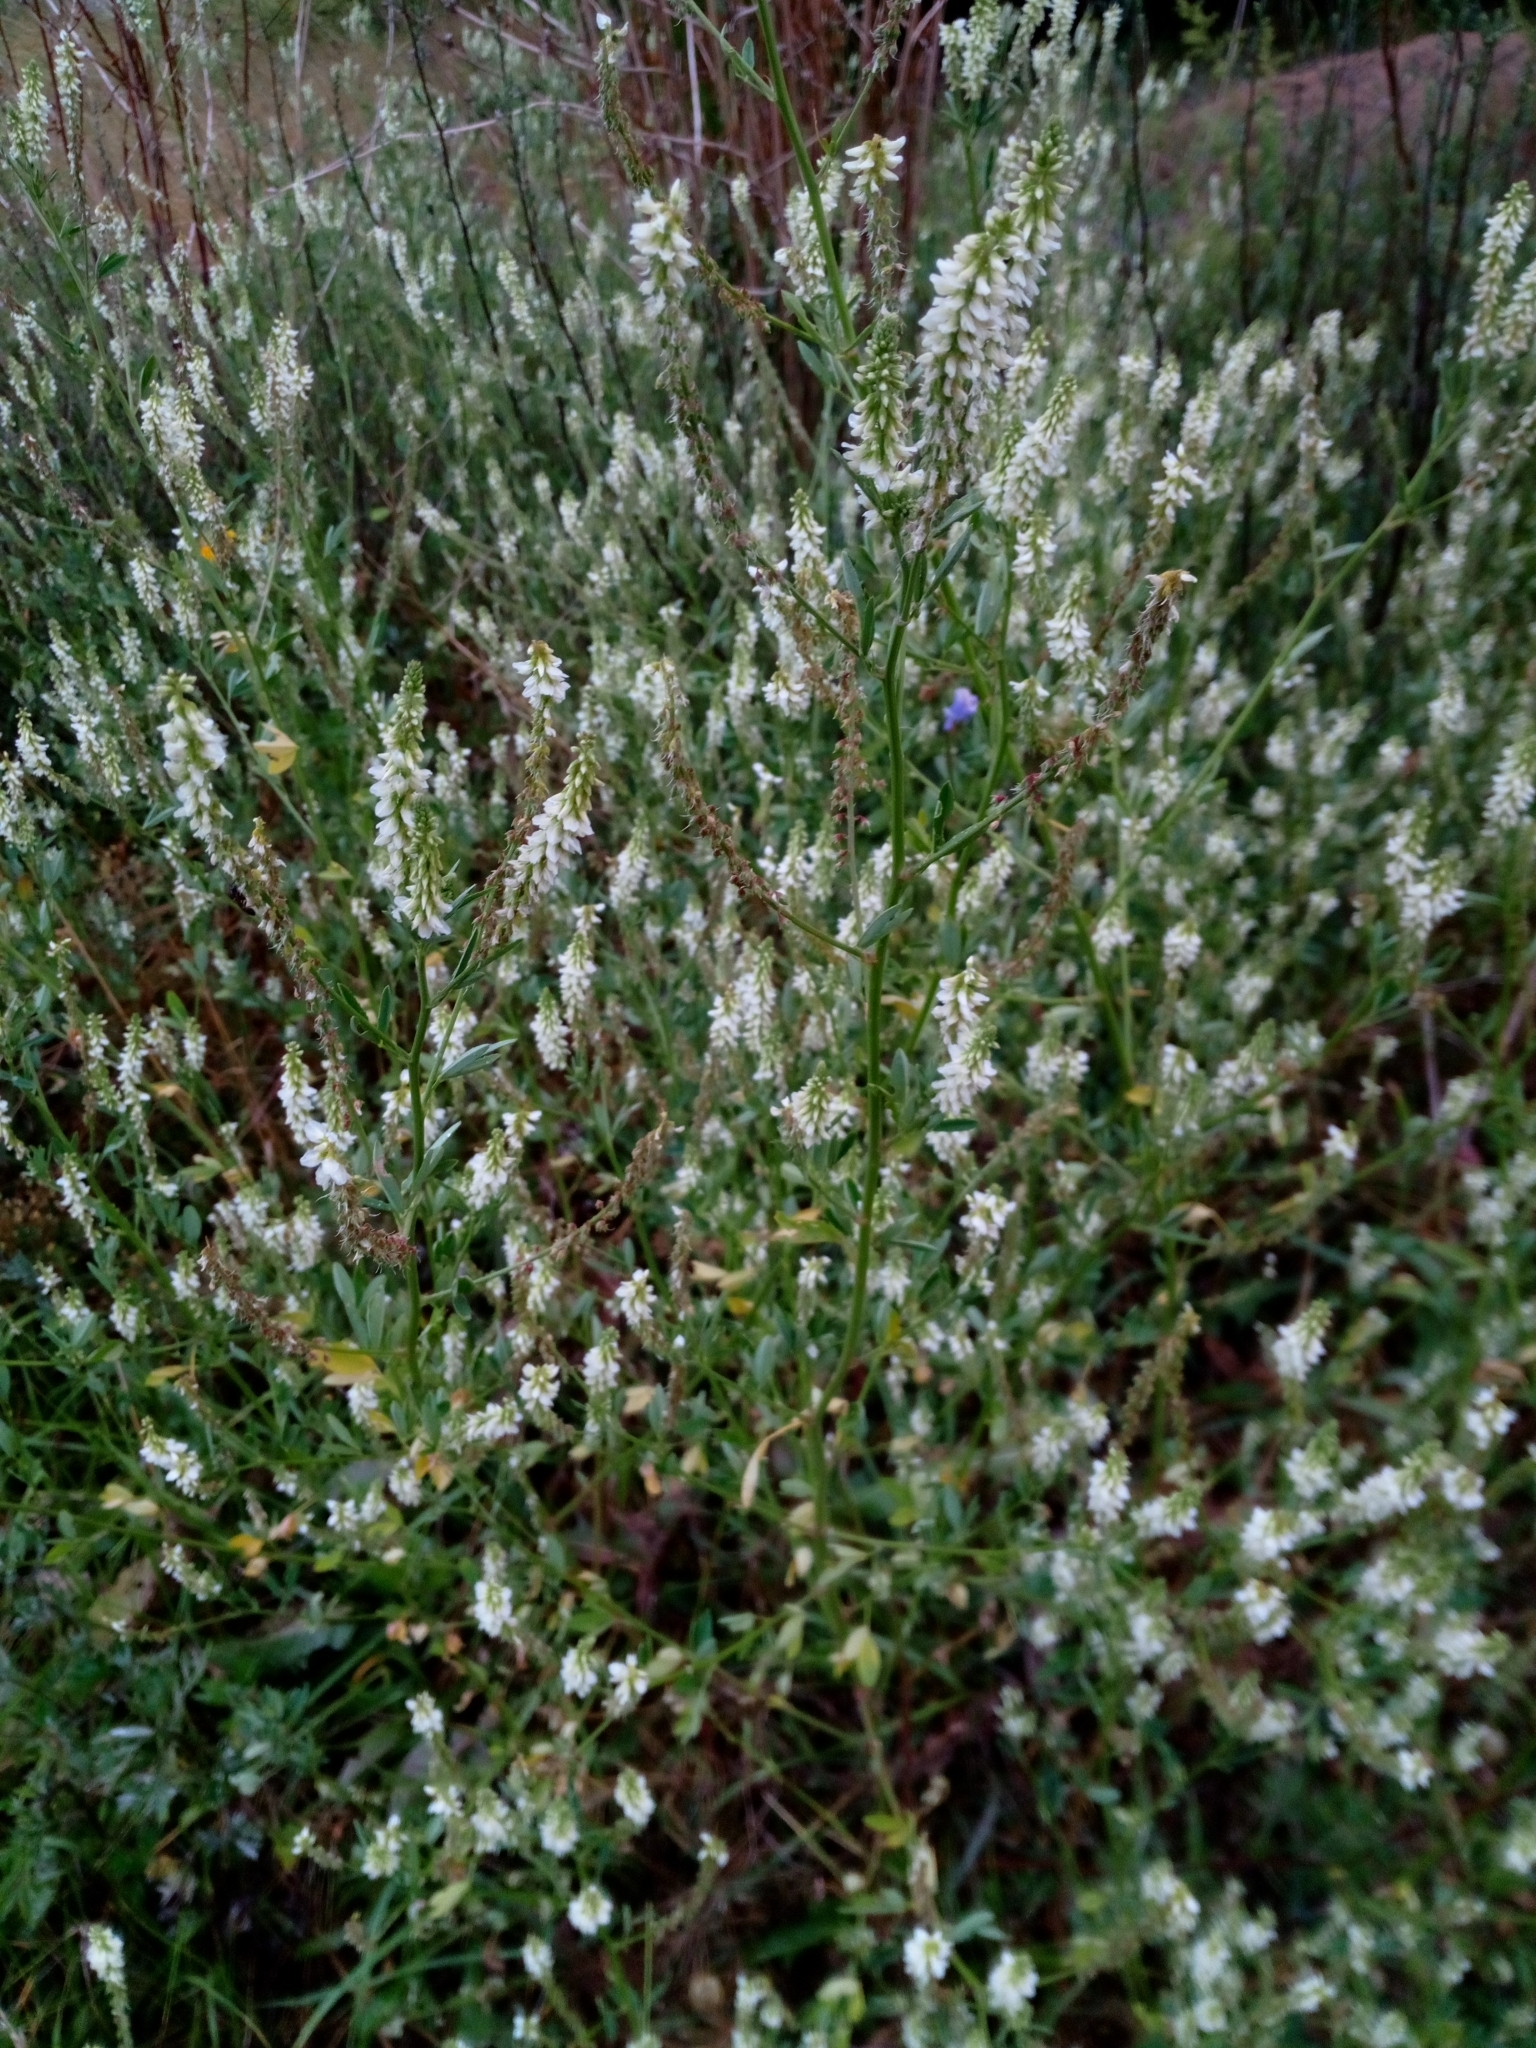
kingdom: Plantae
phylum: Tracheophyta
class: Magnoliopsida
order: Fabales
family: Fabaceae
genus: Melilotus
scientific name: Melilotus albus
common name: White melilot
